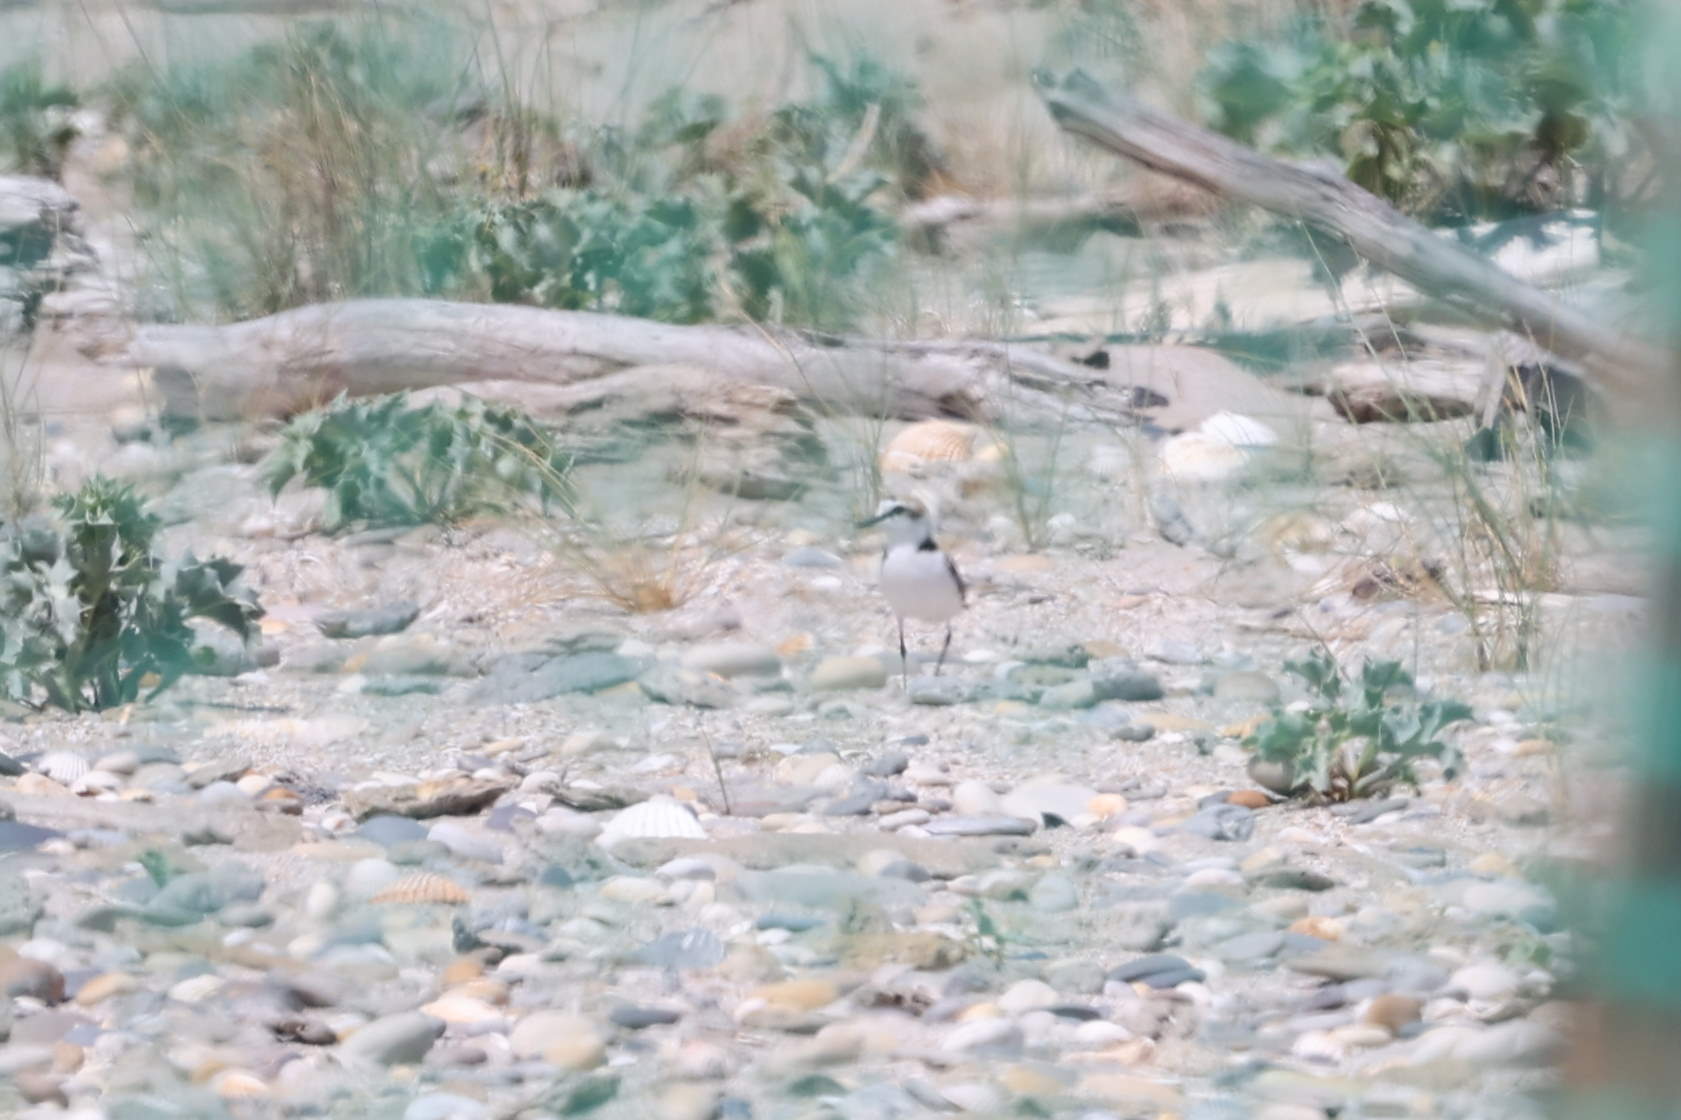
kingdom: Animalia
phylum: Chordata
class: Aves
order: Charadriiformes
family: Charadriidae
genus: Charadrius
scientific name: Charadrius alexandrinus
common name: Kentish plover
